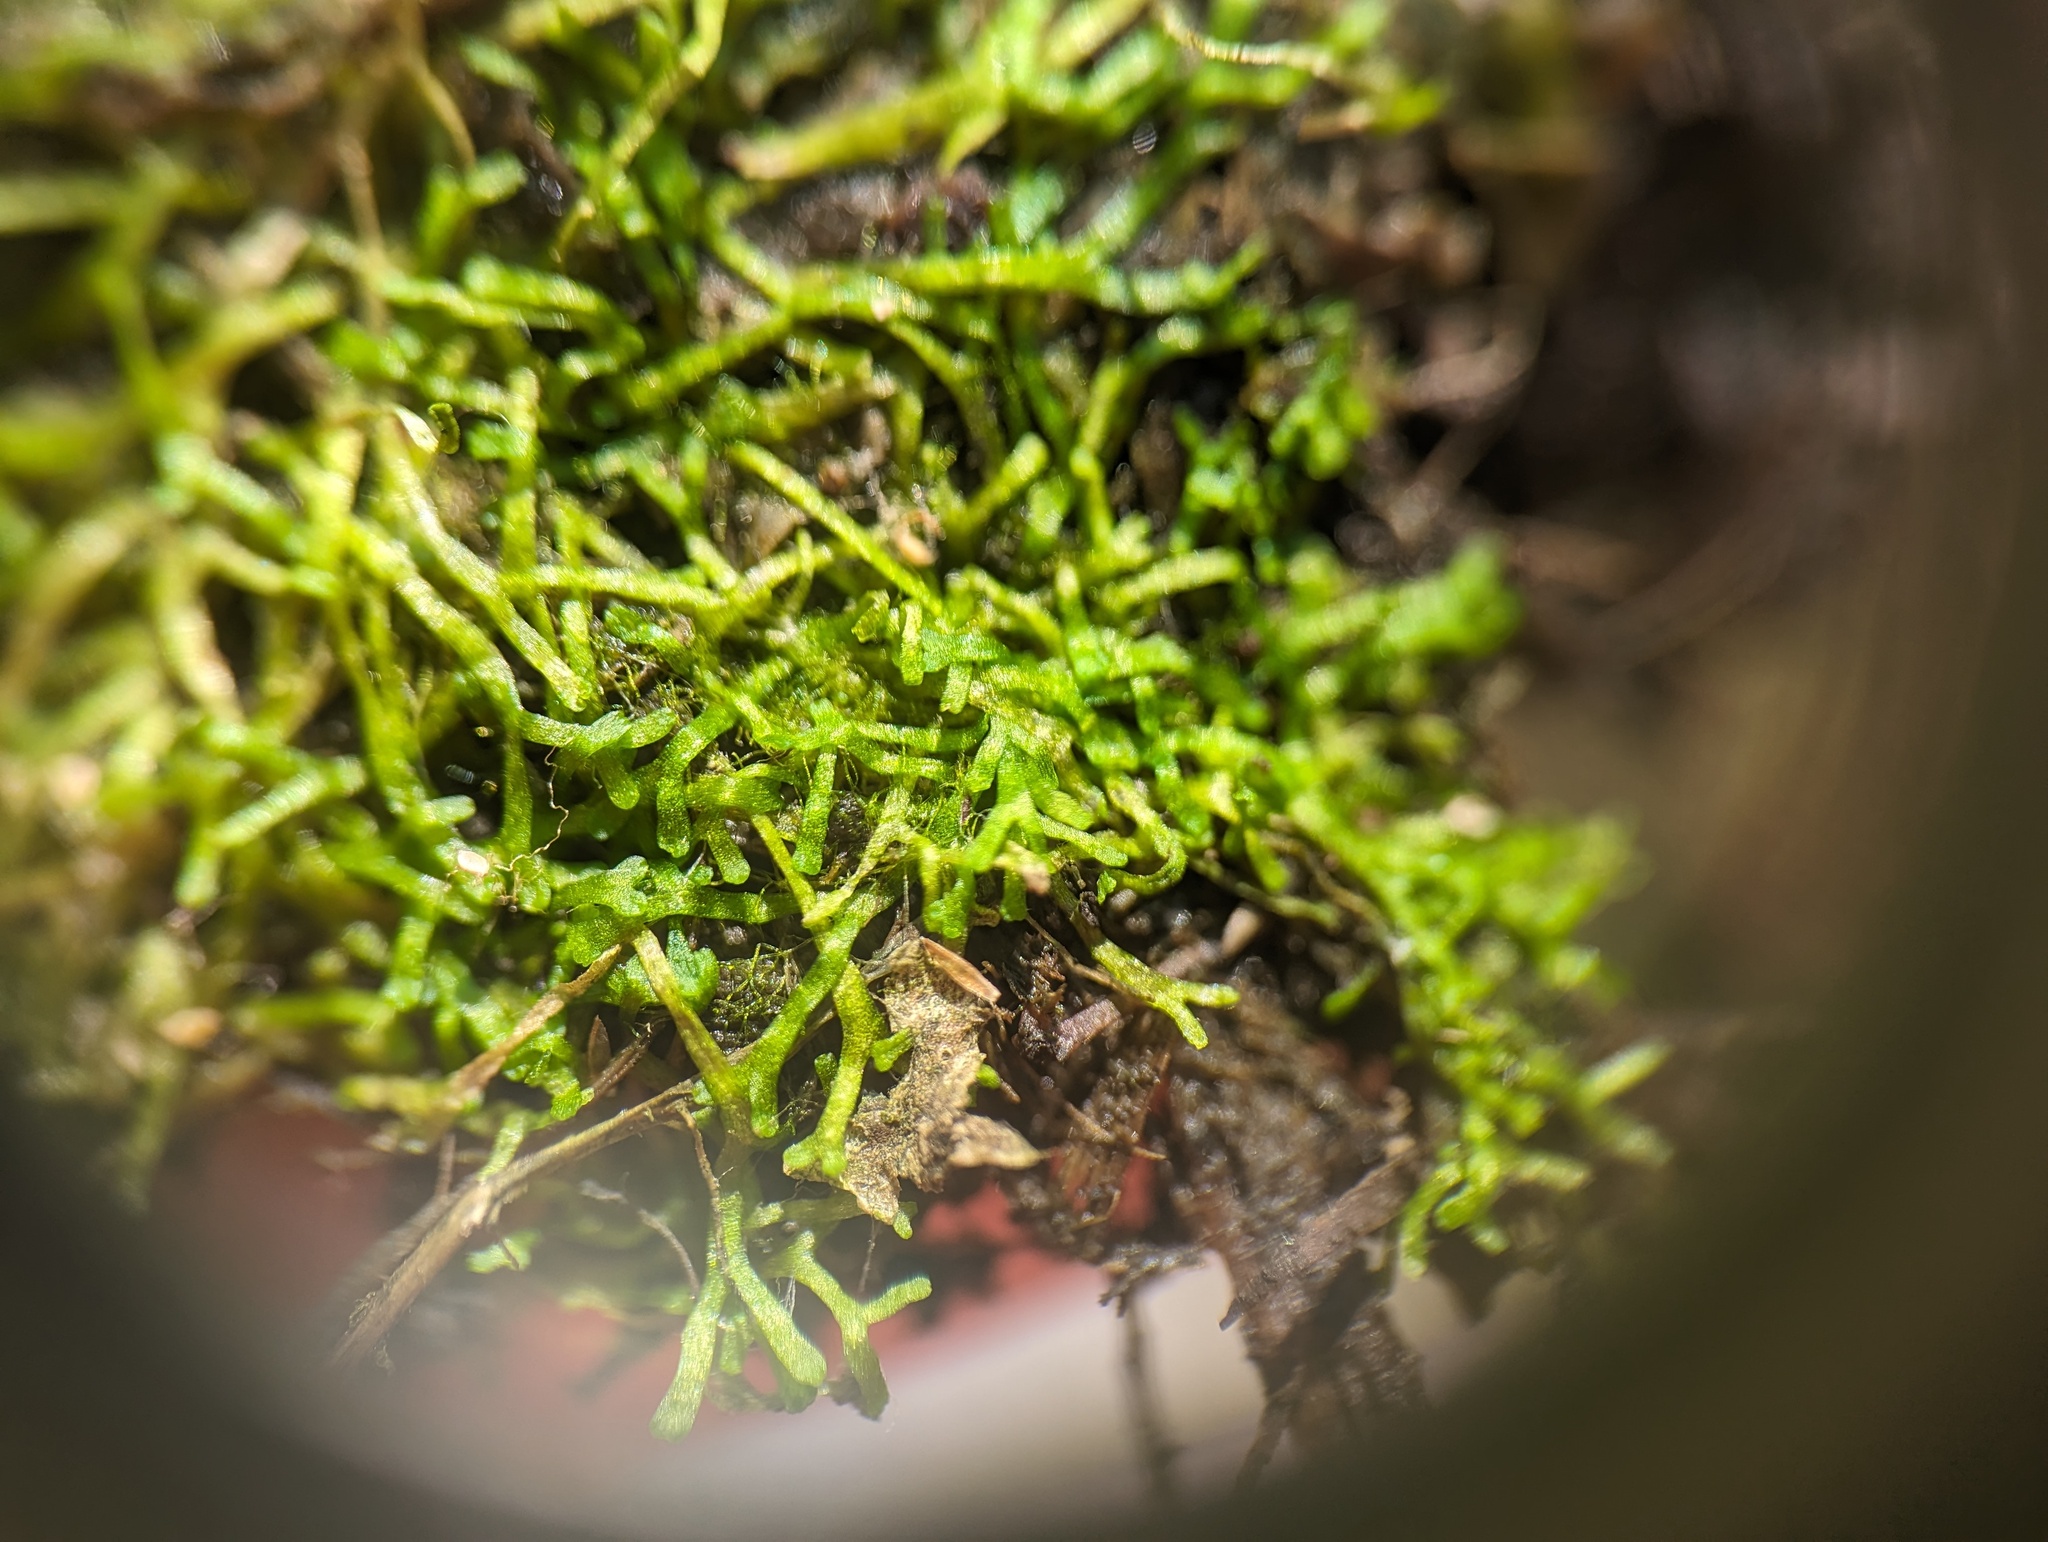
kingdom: Plantae
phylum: Marchantiophyta
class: Marchantiopsida
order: Marchantiales
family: Ricciaceae
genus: Riccia
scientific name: Riccia fluitans
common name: Floating crystalwort
